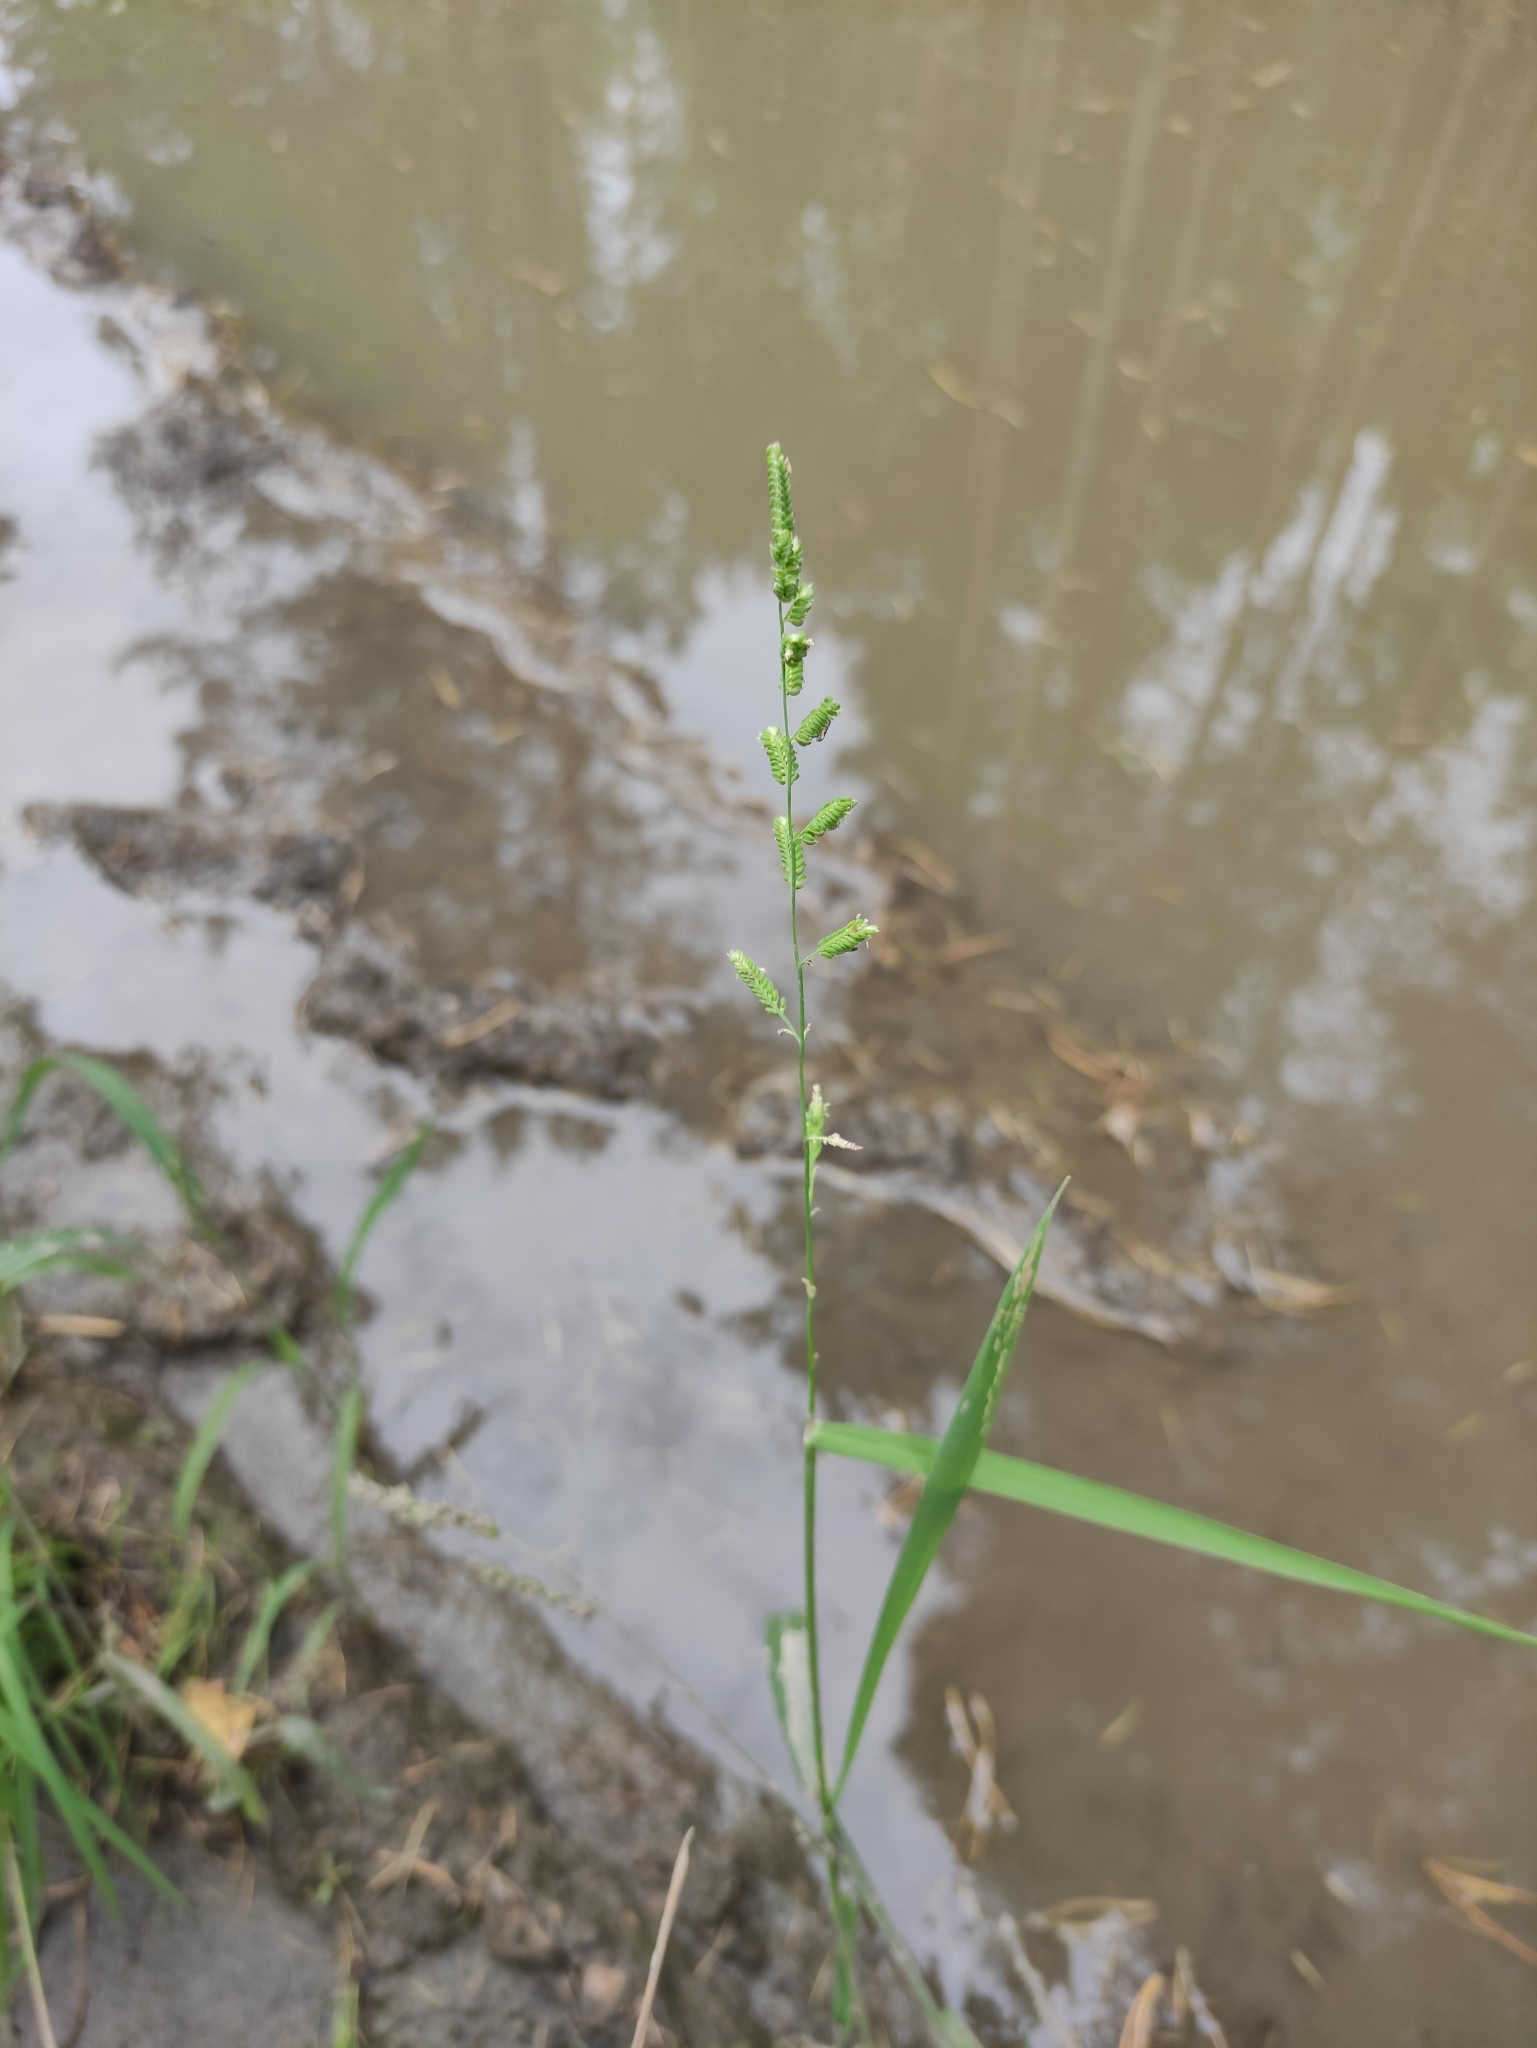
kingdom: Plantae
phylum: Tracheophyta
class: Liliopsida
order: Poales
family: Poaceae
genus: Beckmannia
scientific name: Beckmannia syzigachne
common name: American slough-grass
